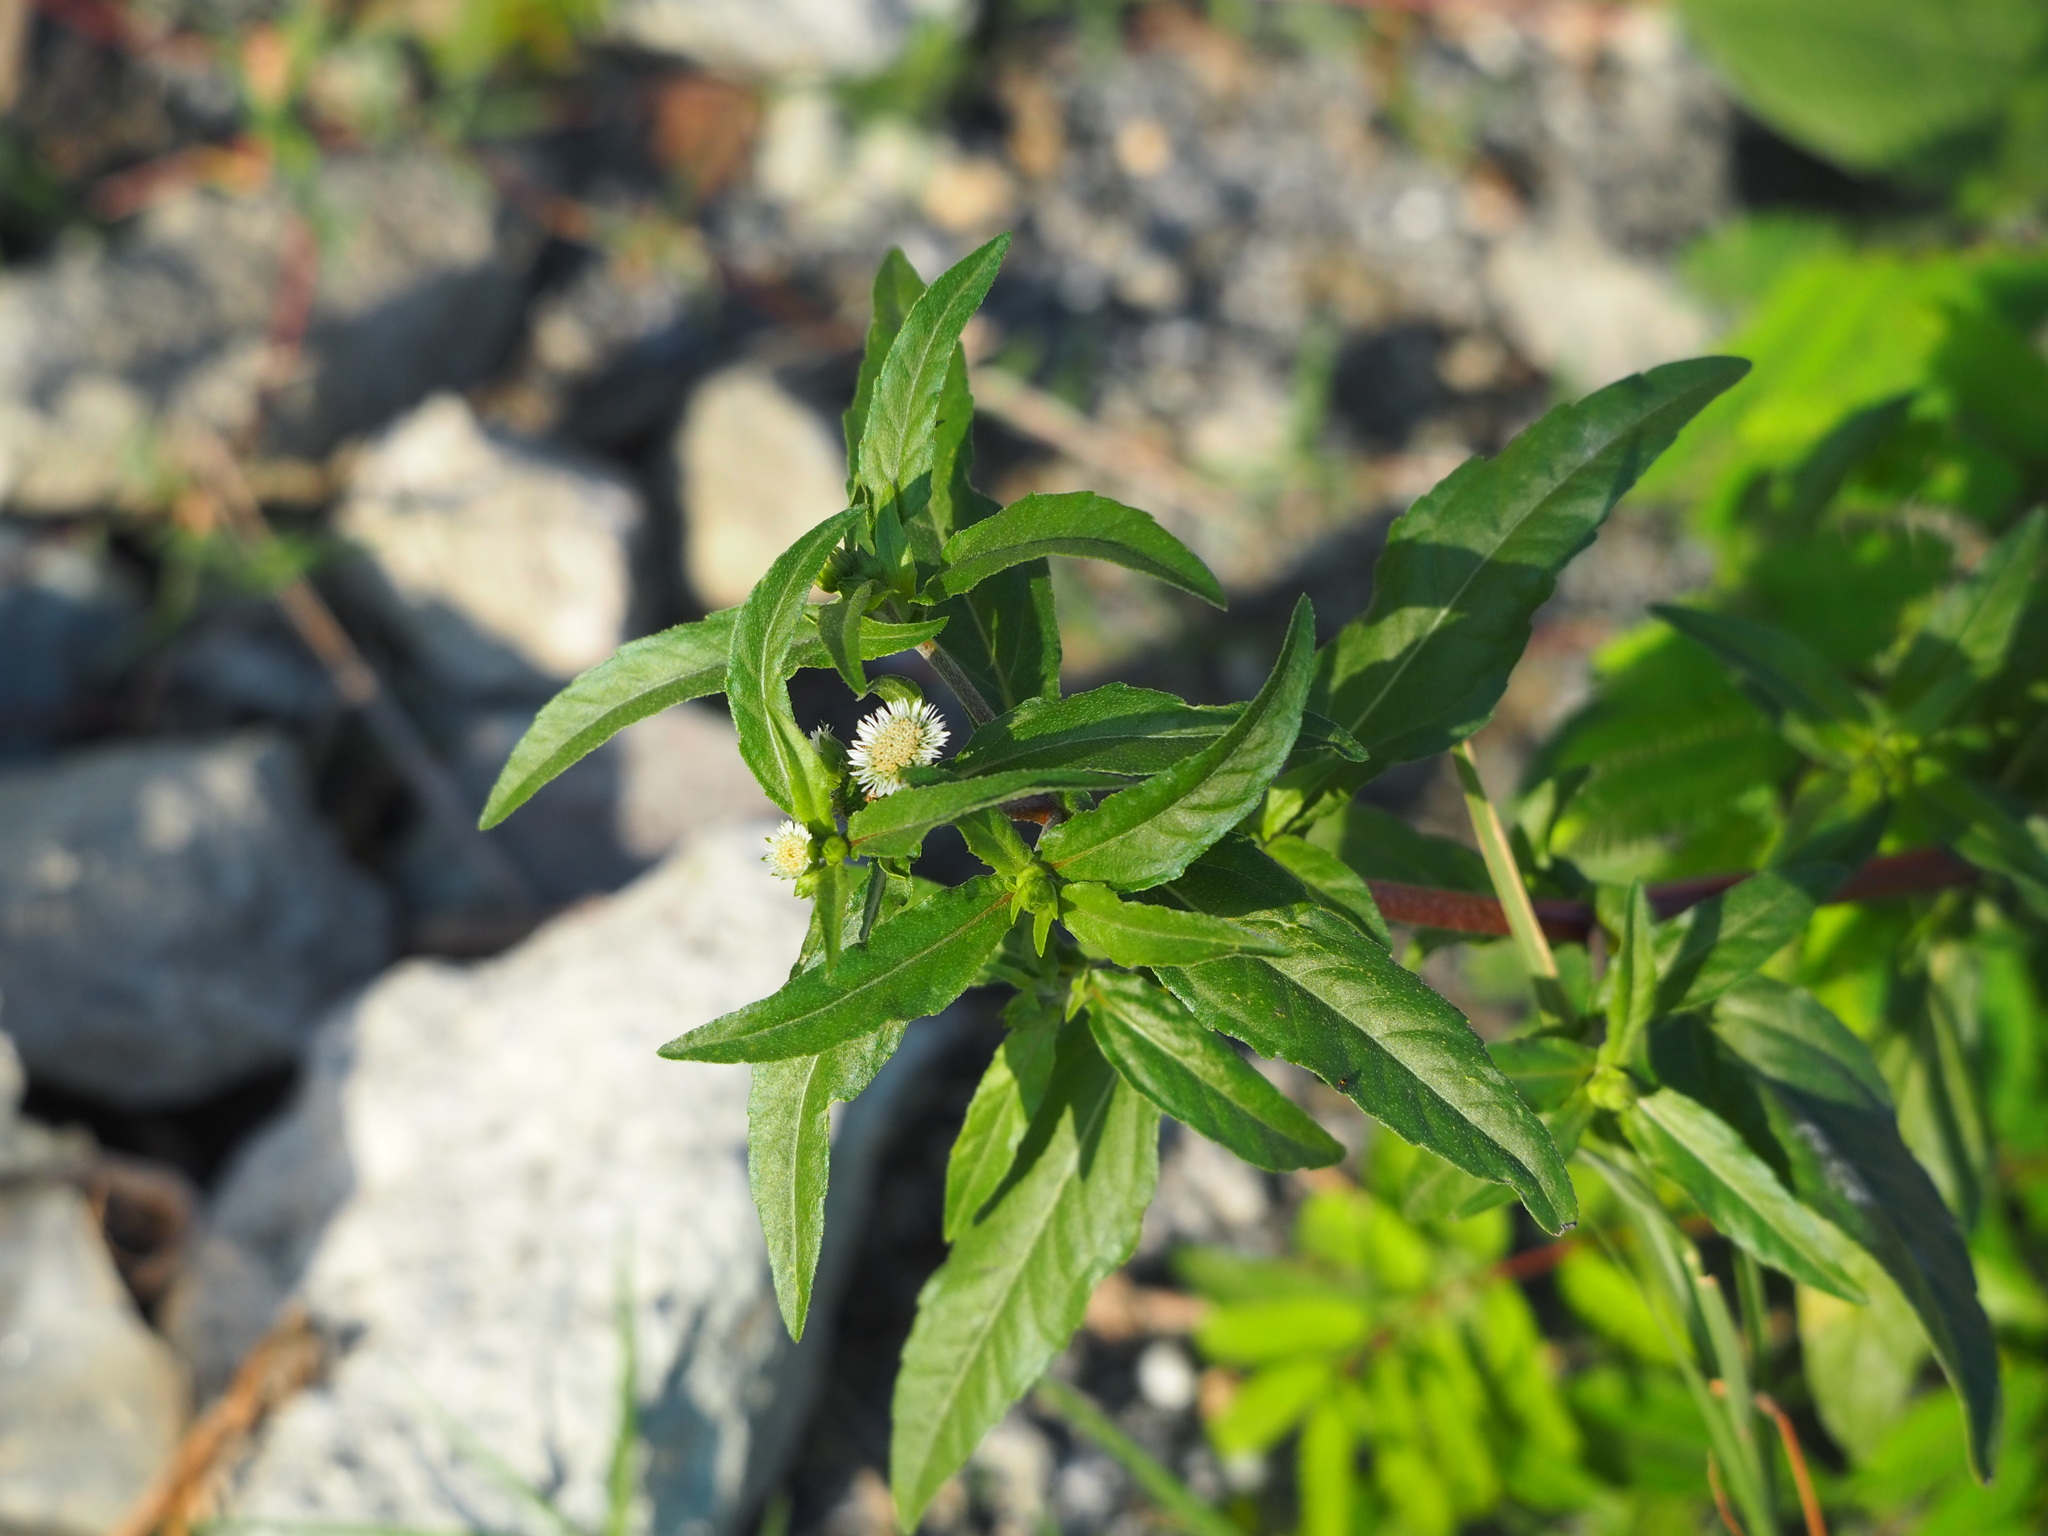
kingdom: Plantae
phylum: Tracheophyta
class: Magnoliopsida
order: Asterales
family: Asteraceae
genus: Eclipta
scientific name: Eclipta prostrata
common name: False daisy
